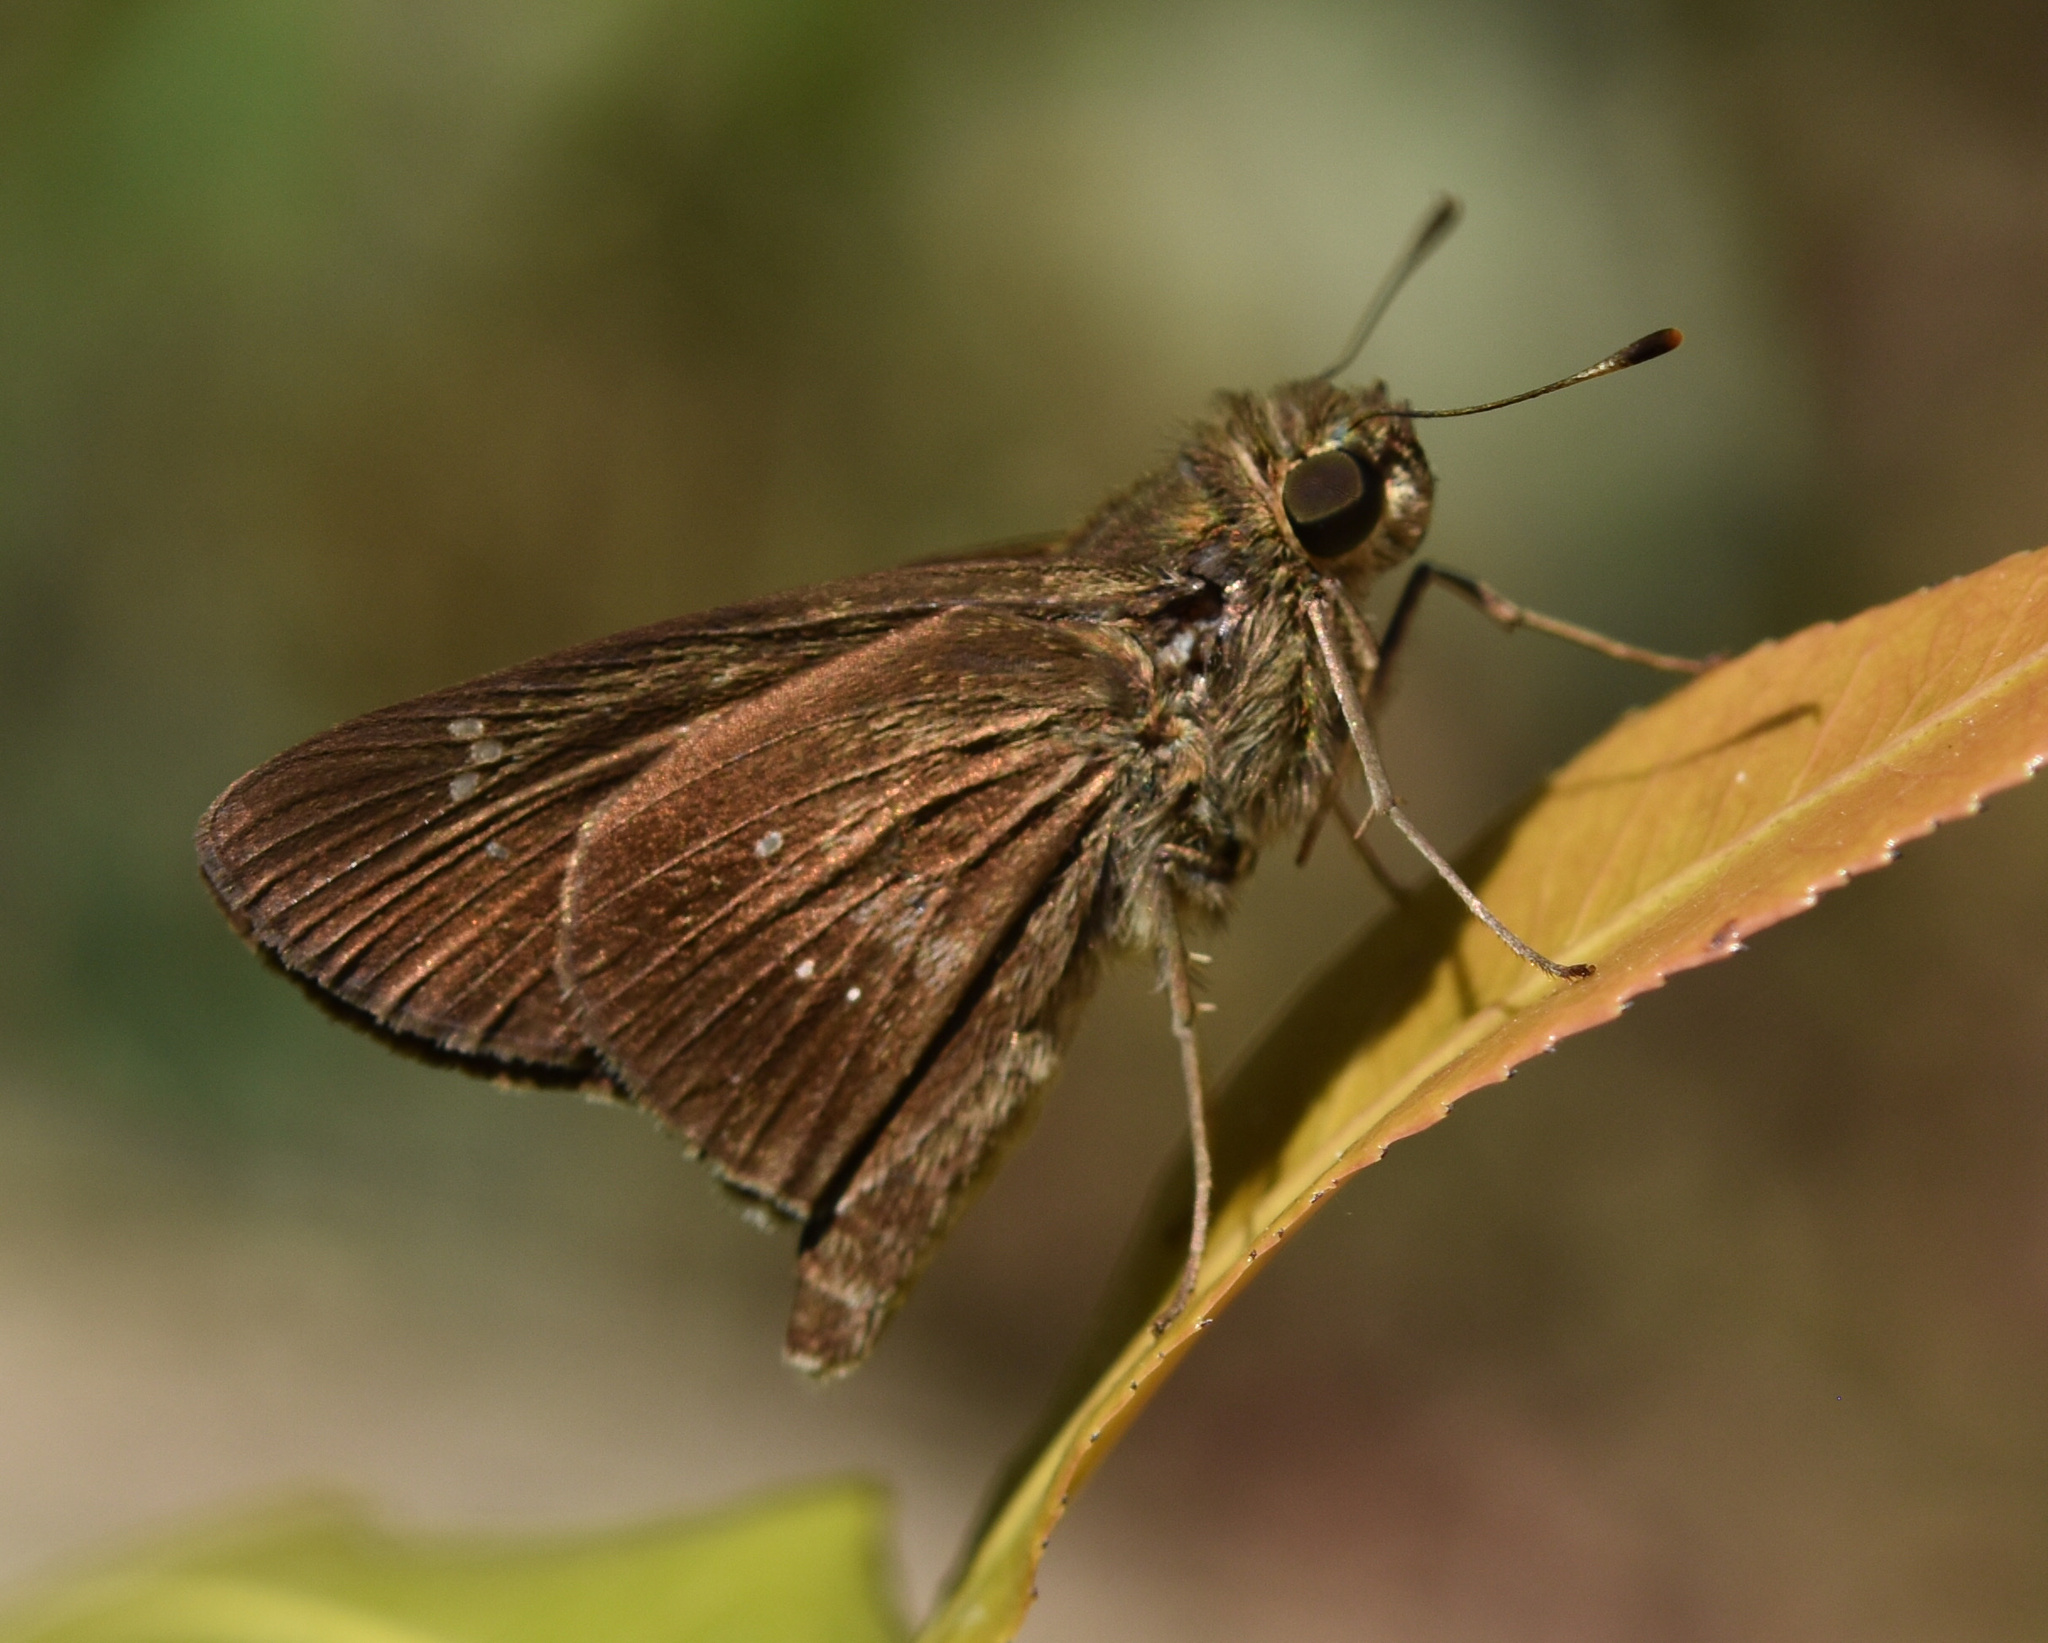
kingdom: Animalia
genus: Torbenlarsenia
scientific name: Torbenlarsenia
